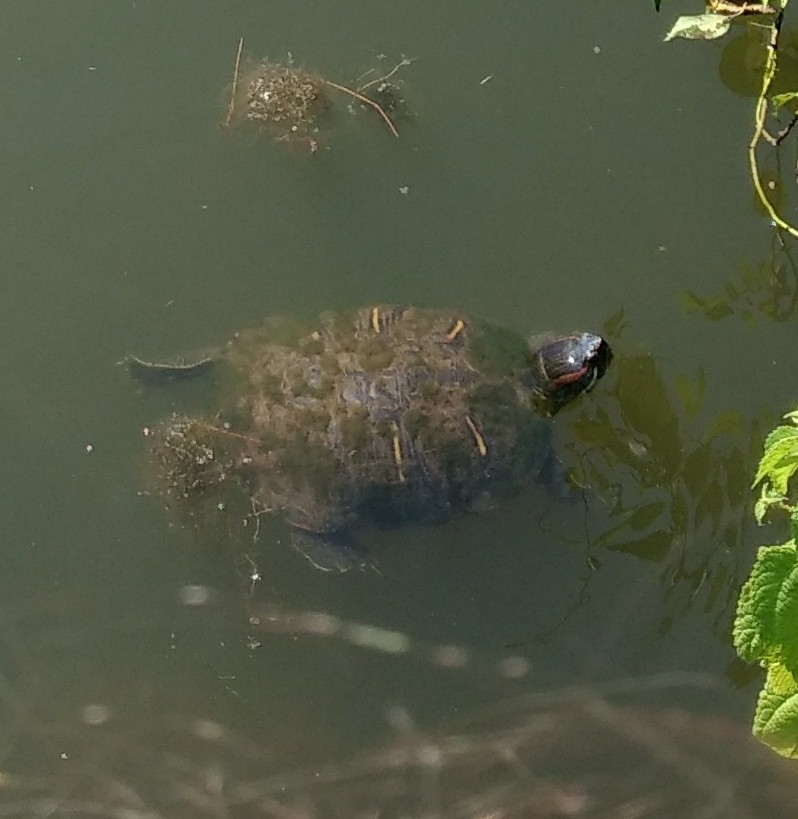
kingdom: Animalia
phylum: Chordata
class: Testudines
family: Emydidae
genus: Trachemys
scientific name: Trachemys scripta
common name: Slider
